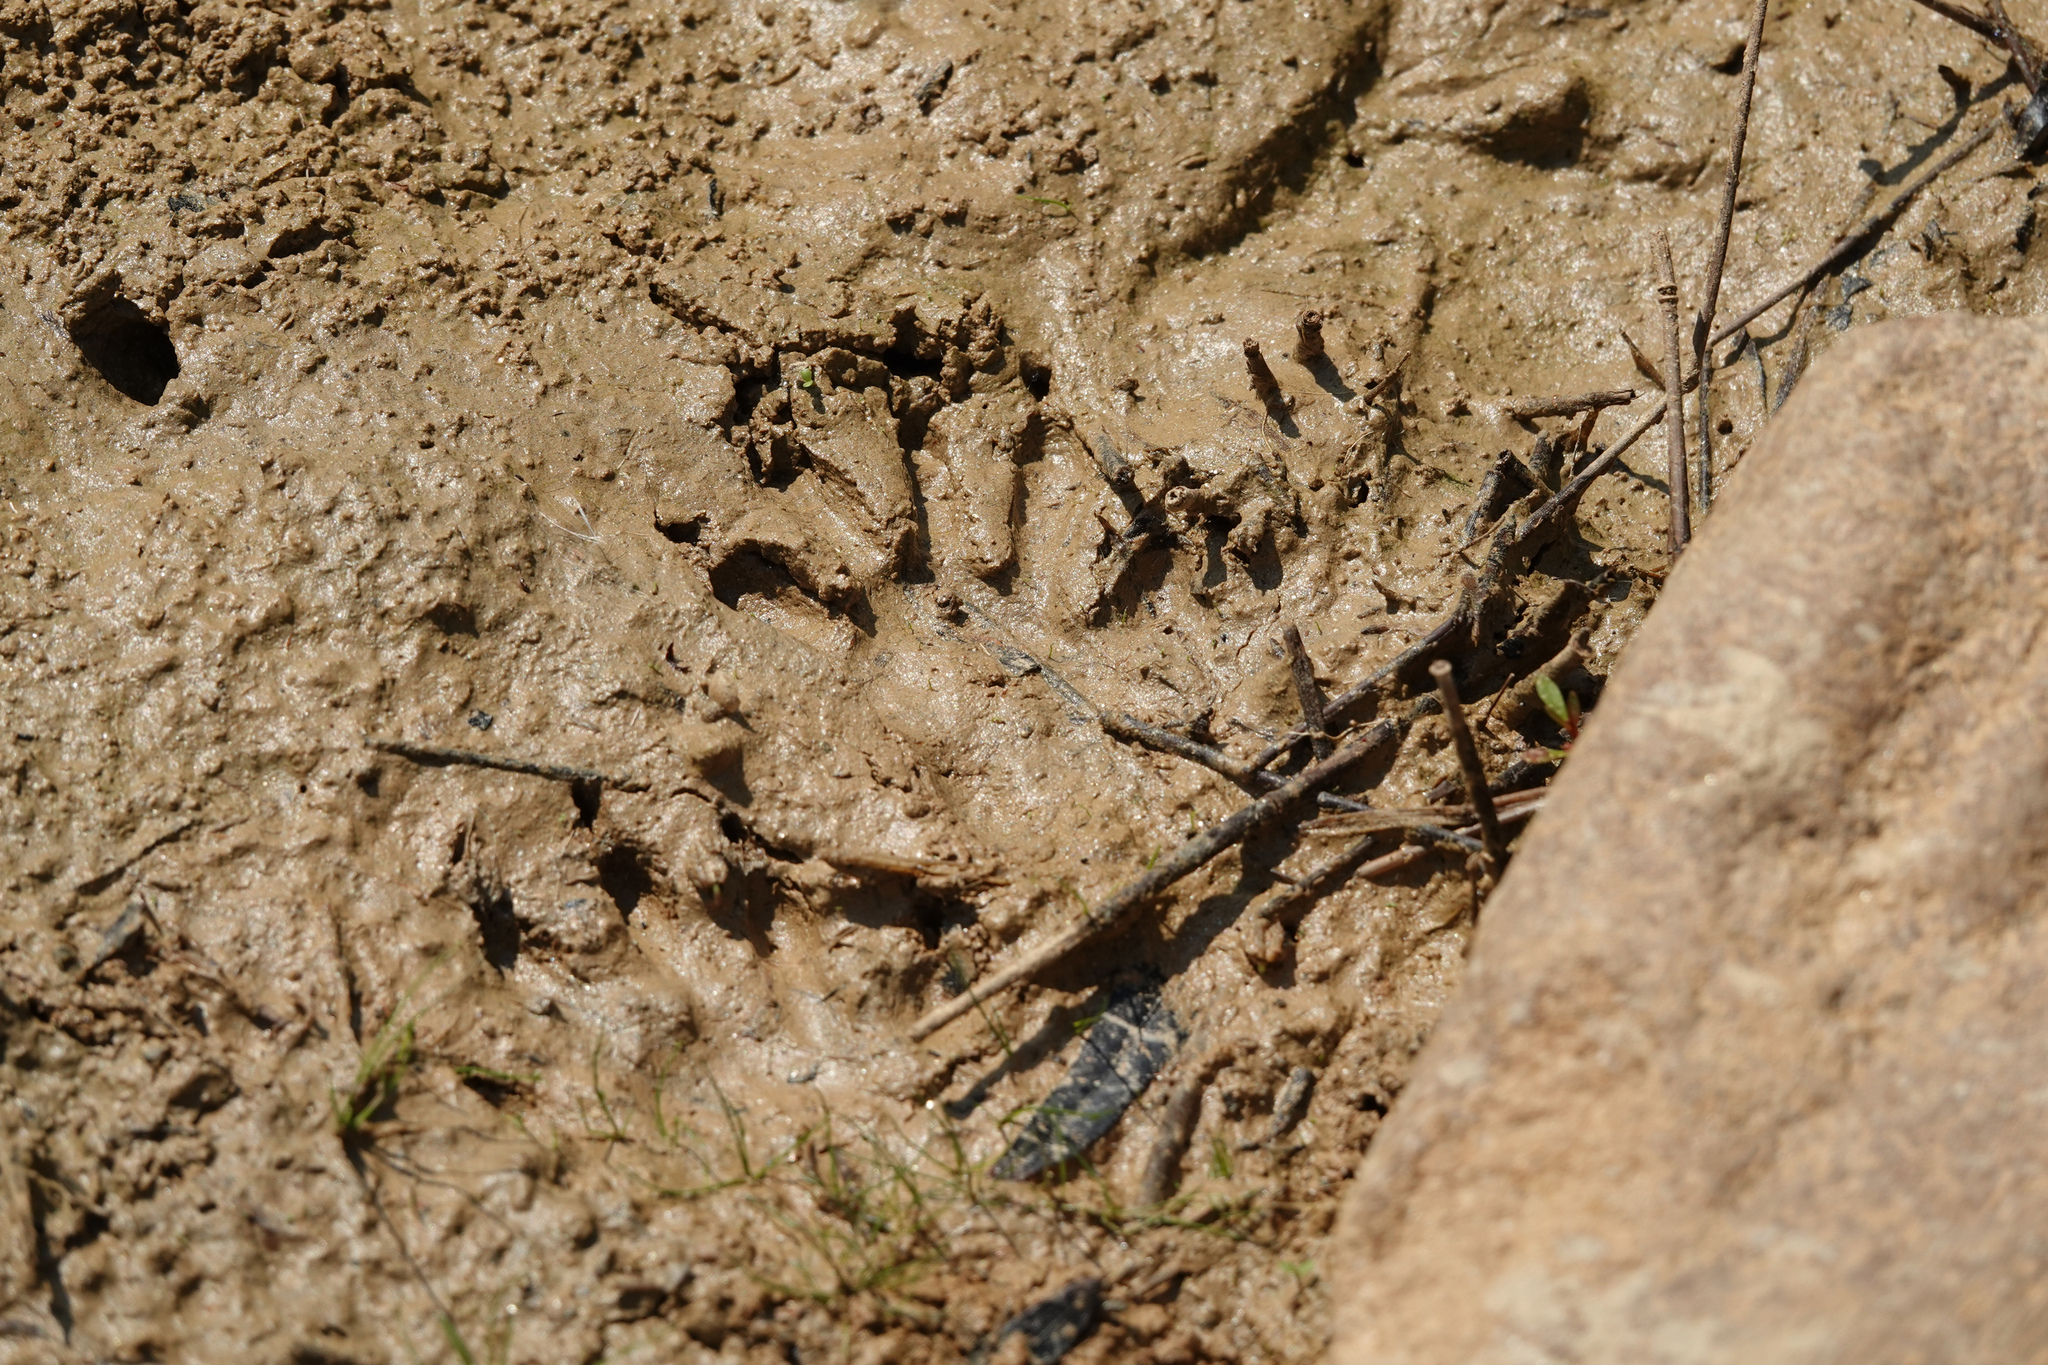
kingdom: Animalia
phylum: Chordata
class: Mammalia
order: Carnivora
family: Procyonidae
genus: Procyon
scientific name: Procyon lotor
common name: Raccoon
